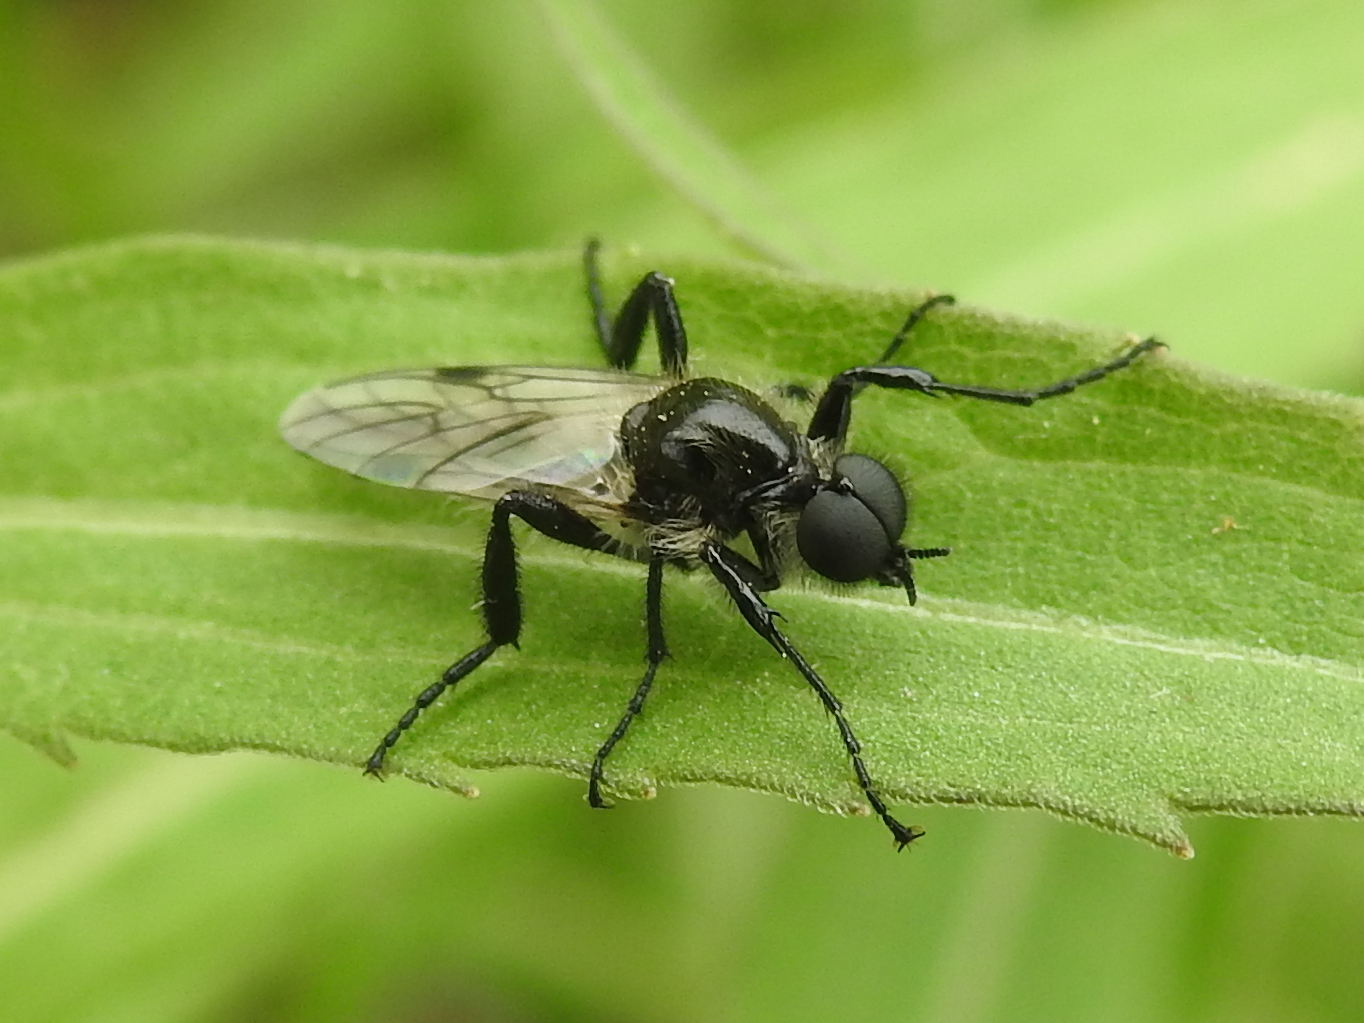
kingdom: Animalia
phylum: Arthropoda
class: Insecta
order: Diptera
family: Bibionidae
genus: Bibio
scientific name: Bibio albipennis
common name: White-winged march fly
